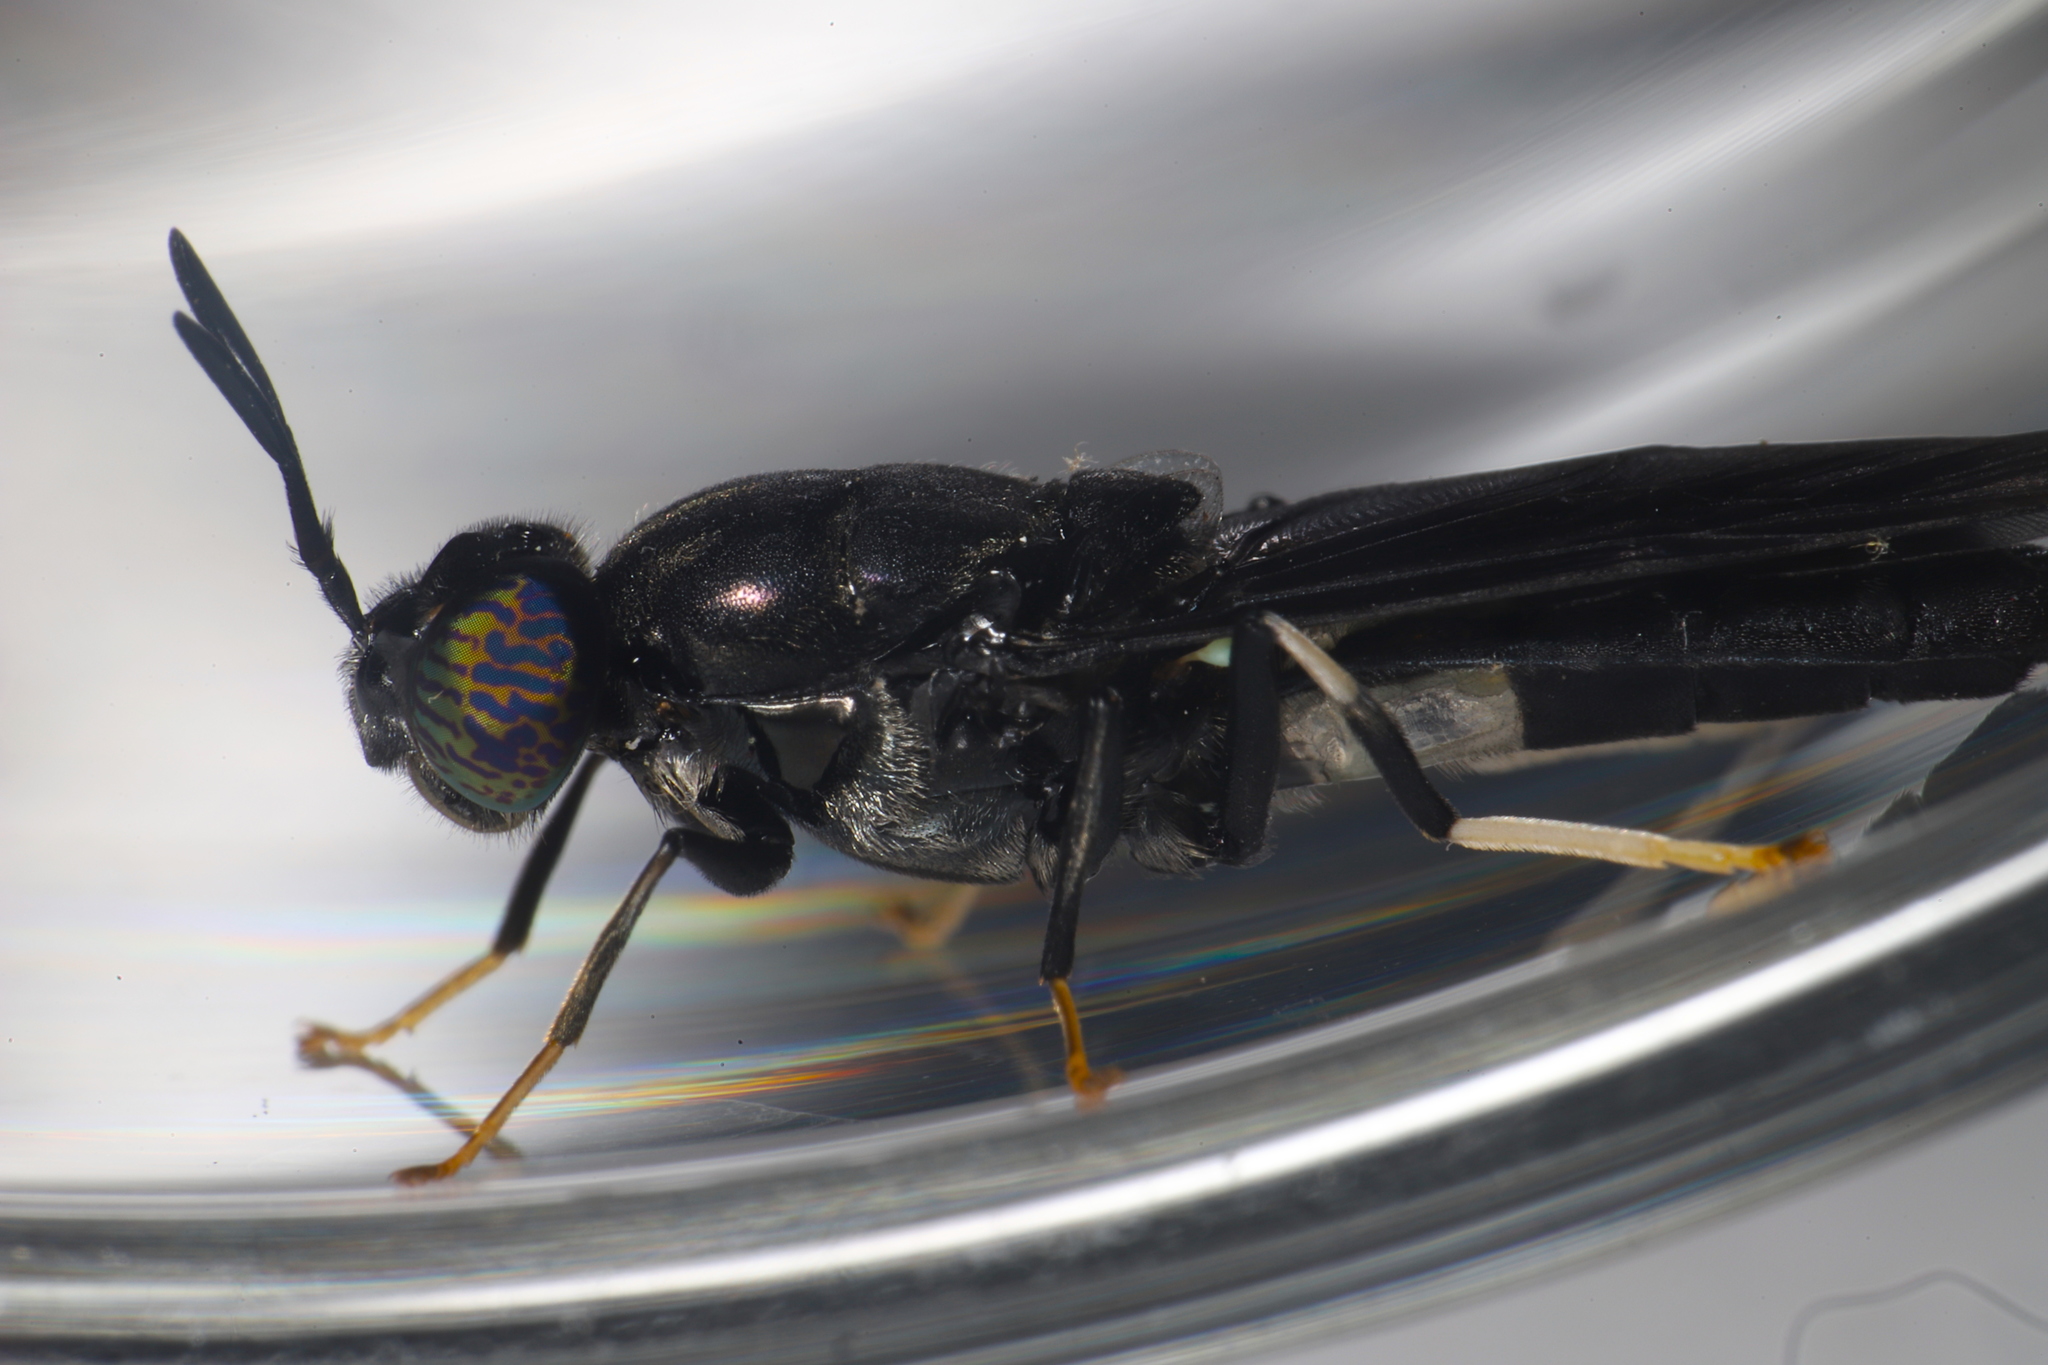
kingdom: Animalia
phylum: Arthropoda
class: Insecta
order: Diptera
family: Stratiomyidae
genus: Hermetia
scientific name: Hermetia illucens
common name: Black soldier fly
